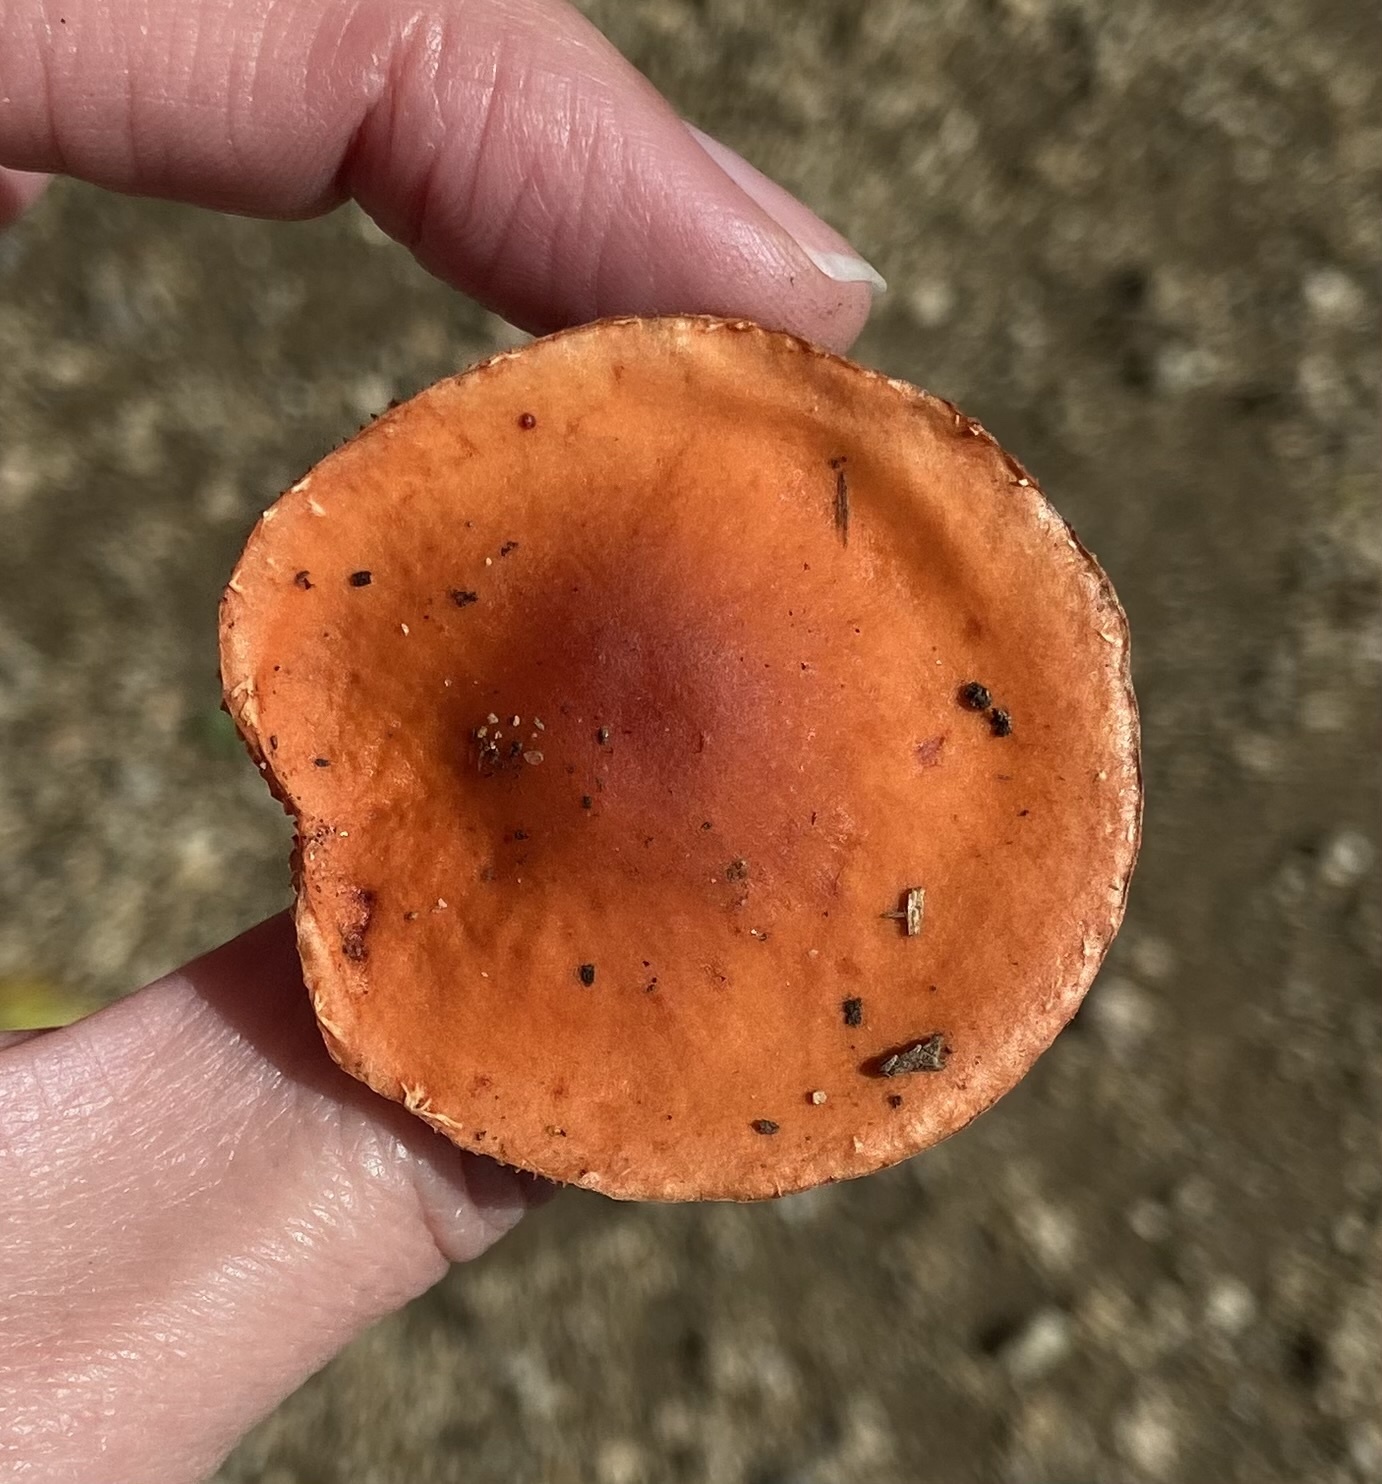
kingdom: Fungi
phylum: Basidiomycota
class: Agaricomycetes
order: Agaricales
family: Strophariaceae
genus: Leratiomyces
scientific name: Leratiomyces ceres
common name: Redlead roundhead
